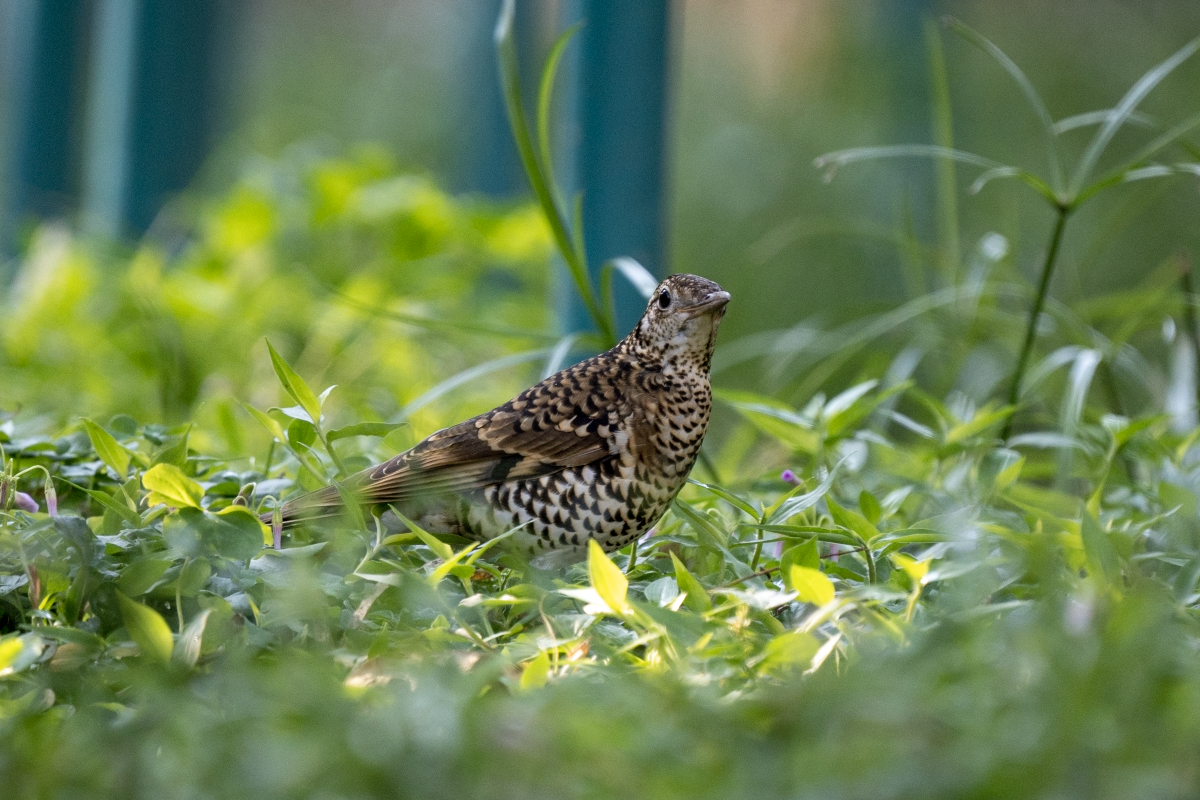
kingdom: Animalia
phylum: Chordata
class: Aves
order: Passeriformes
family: Turdidae
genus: Zoothera
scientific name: Zoothera aurea
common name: White's thrush
